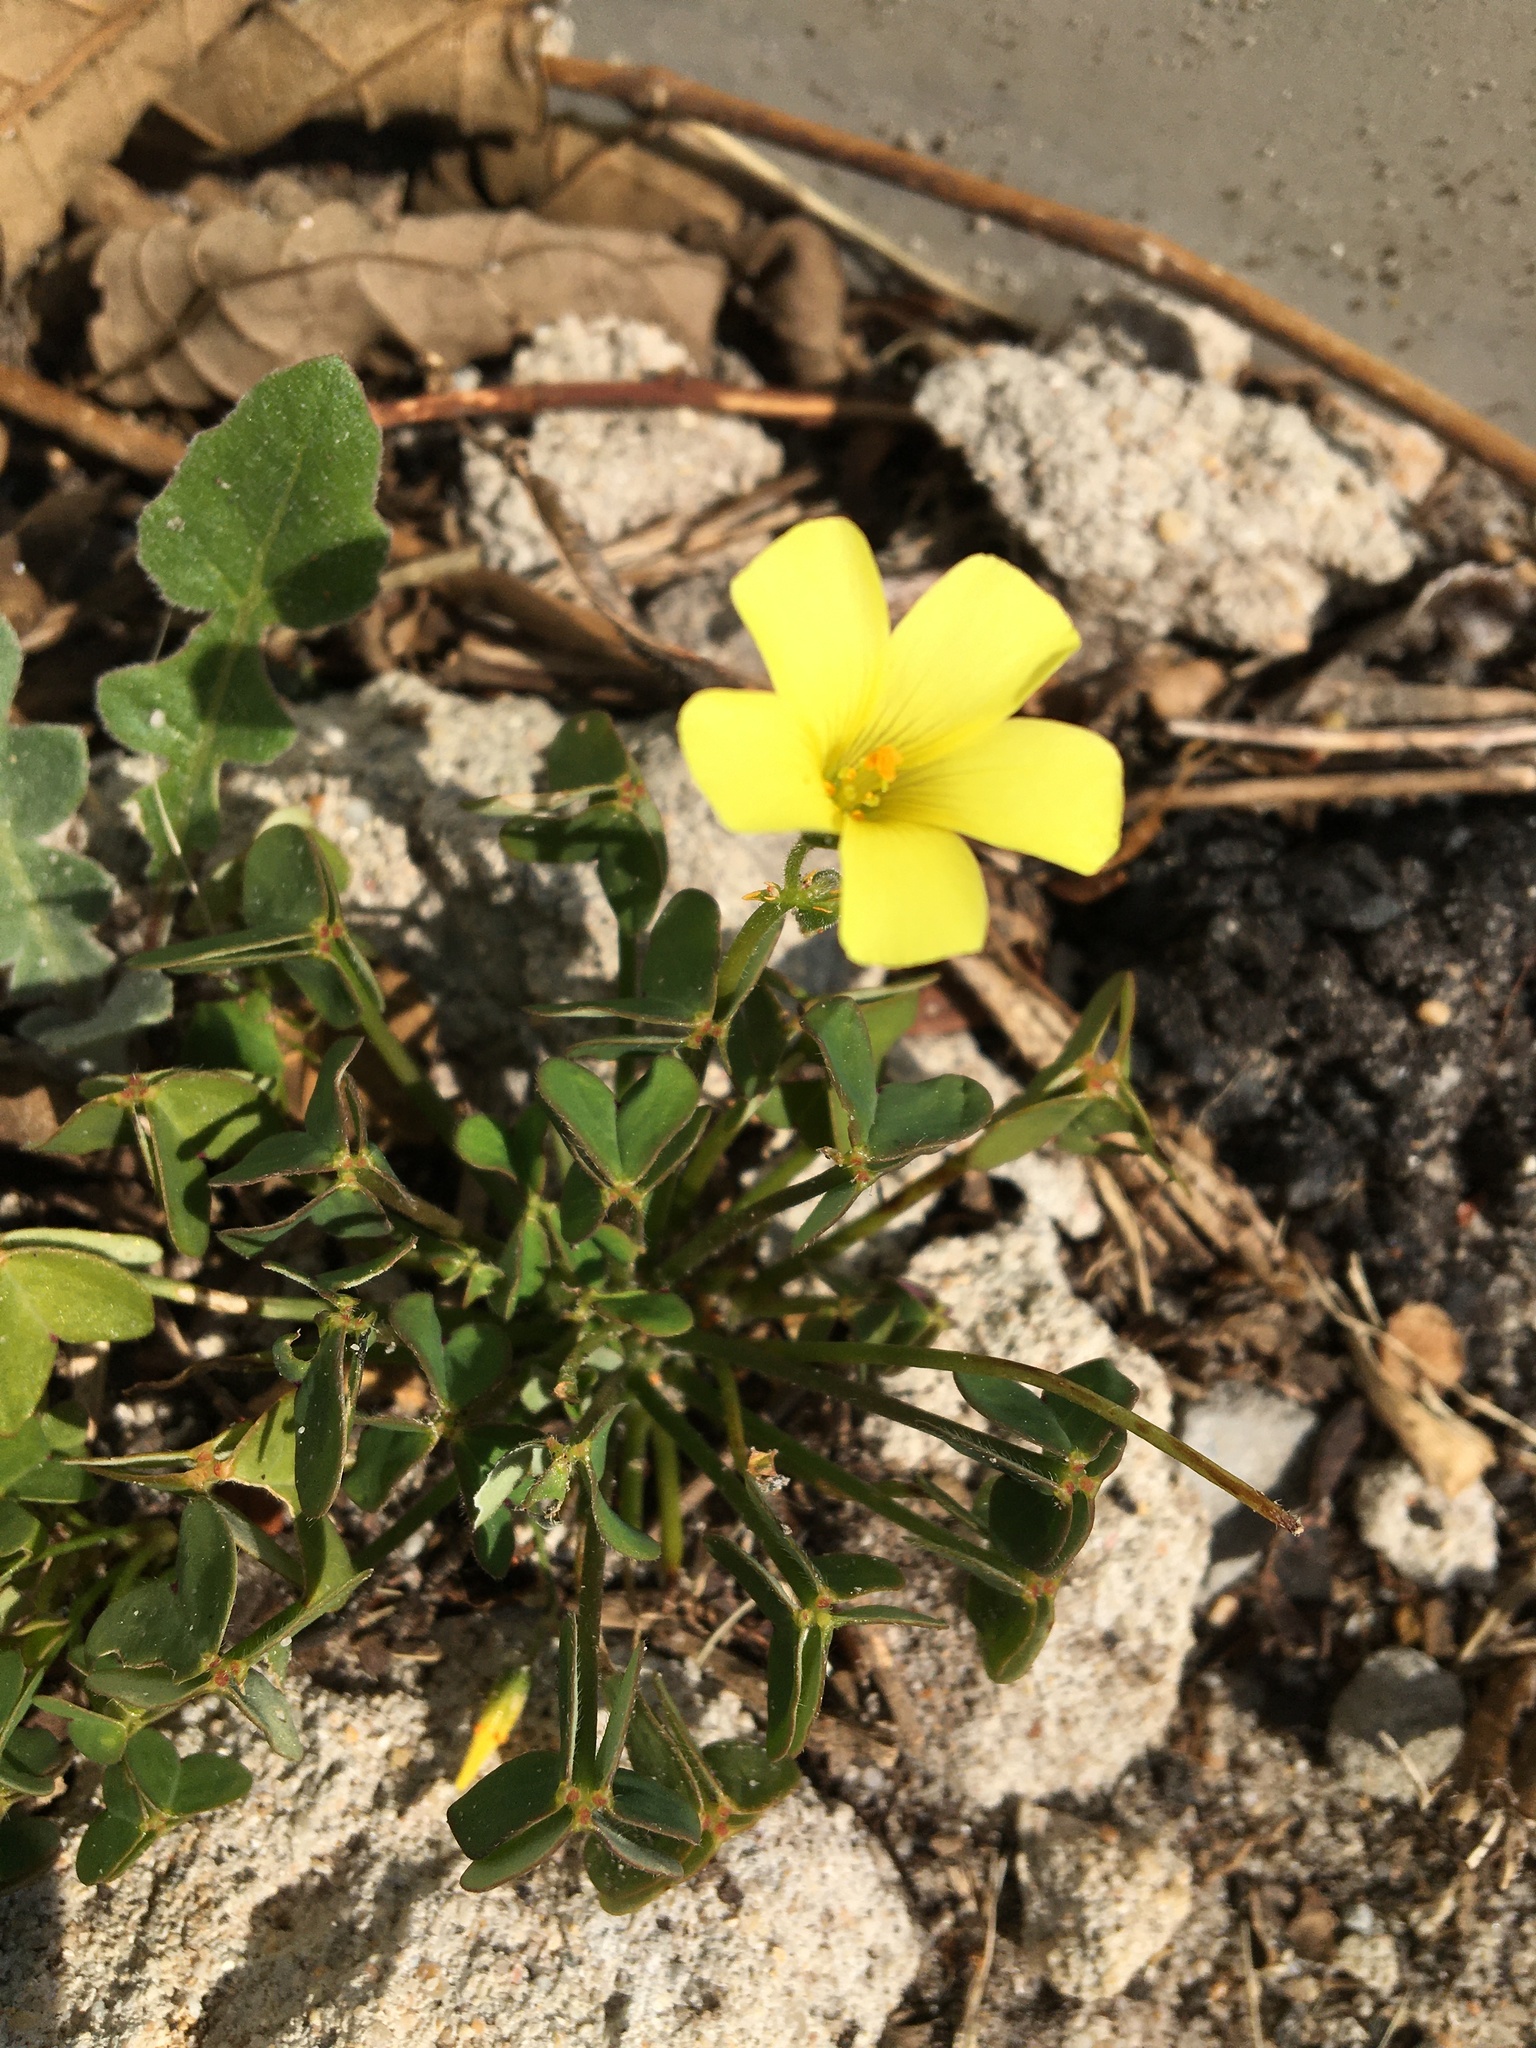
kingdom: Plantae
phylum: Tracheophyta
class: Magnoliopsida
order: Oxalidales
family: Oxalidaceae
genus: Oxalis
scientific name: Oxalis pes-caprae
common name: Bermuda-buttercup
